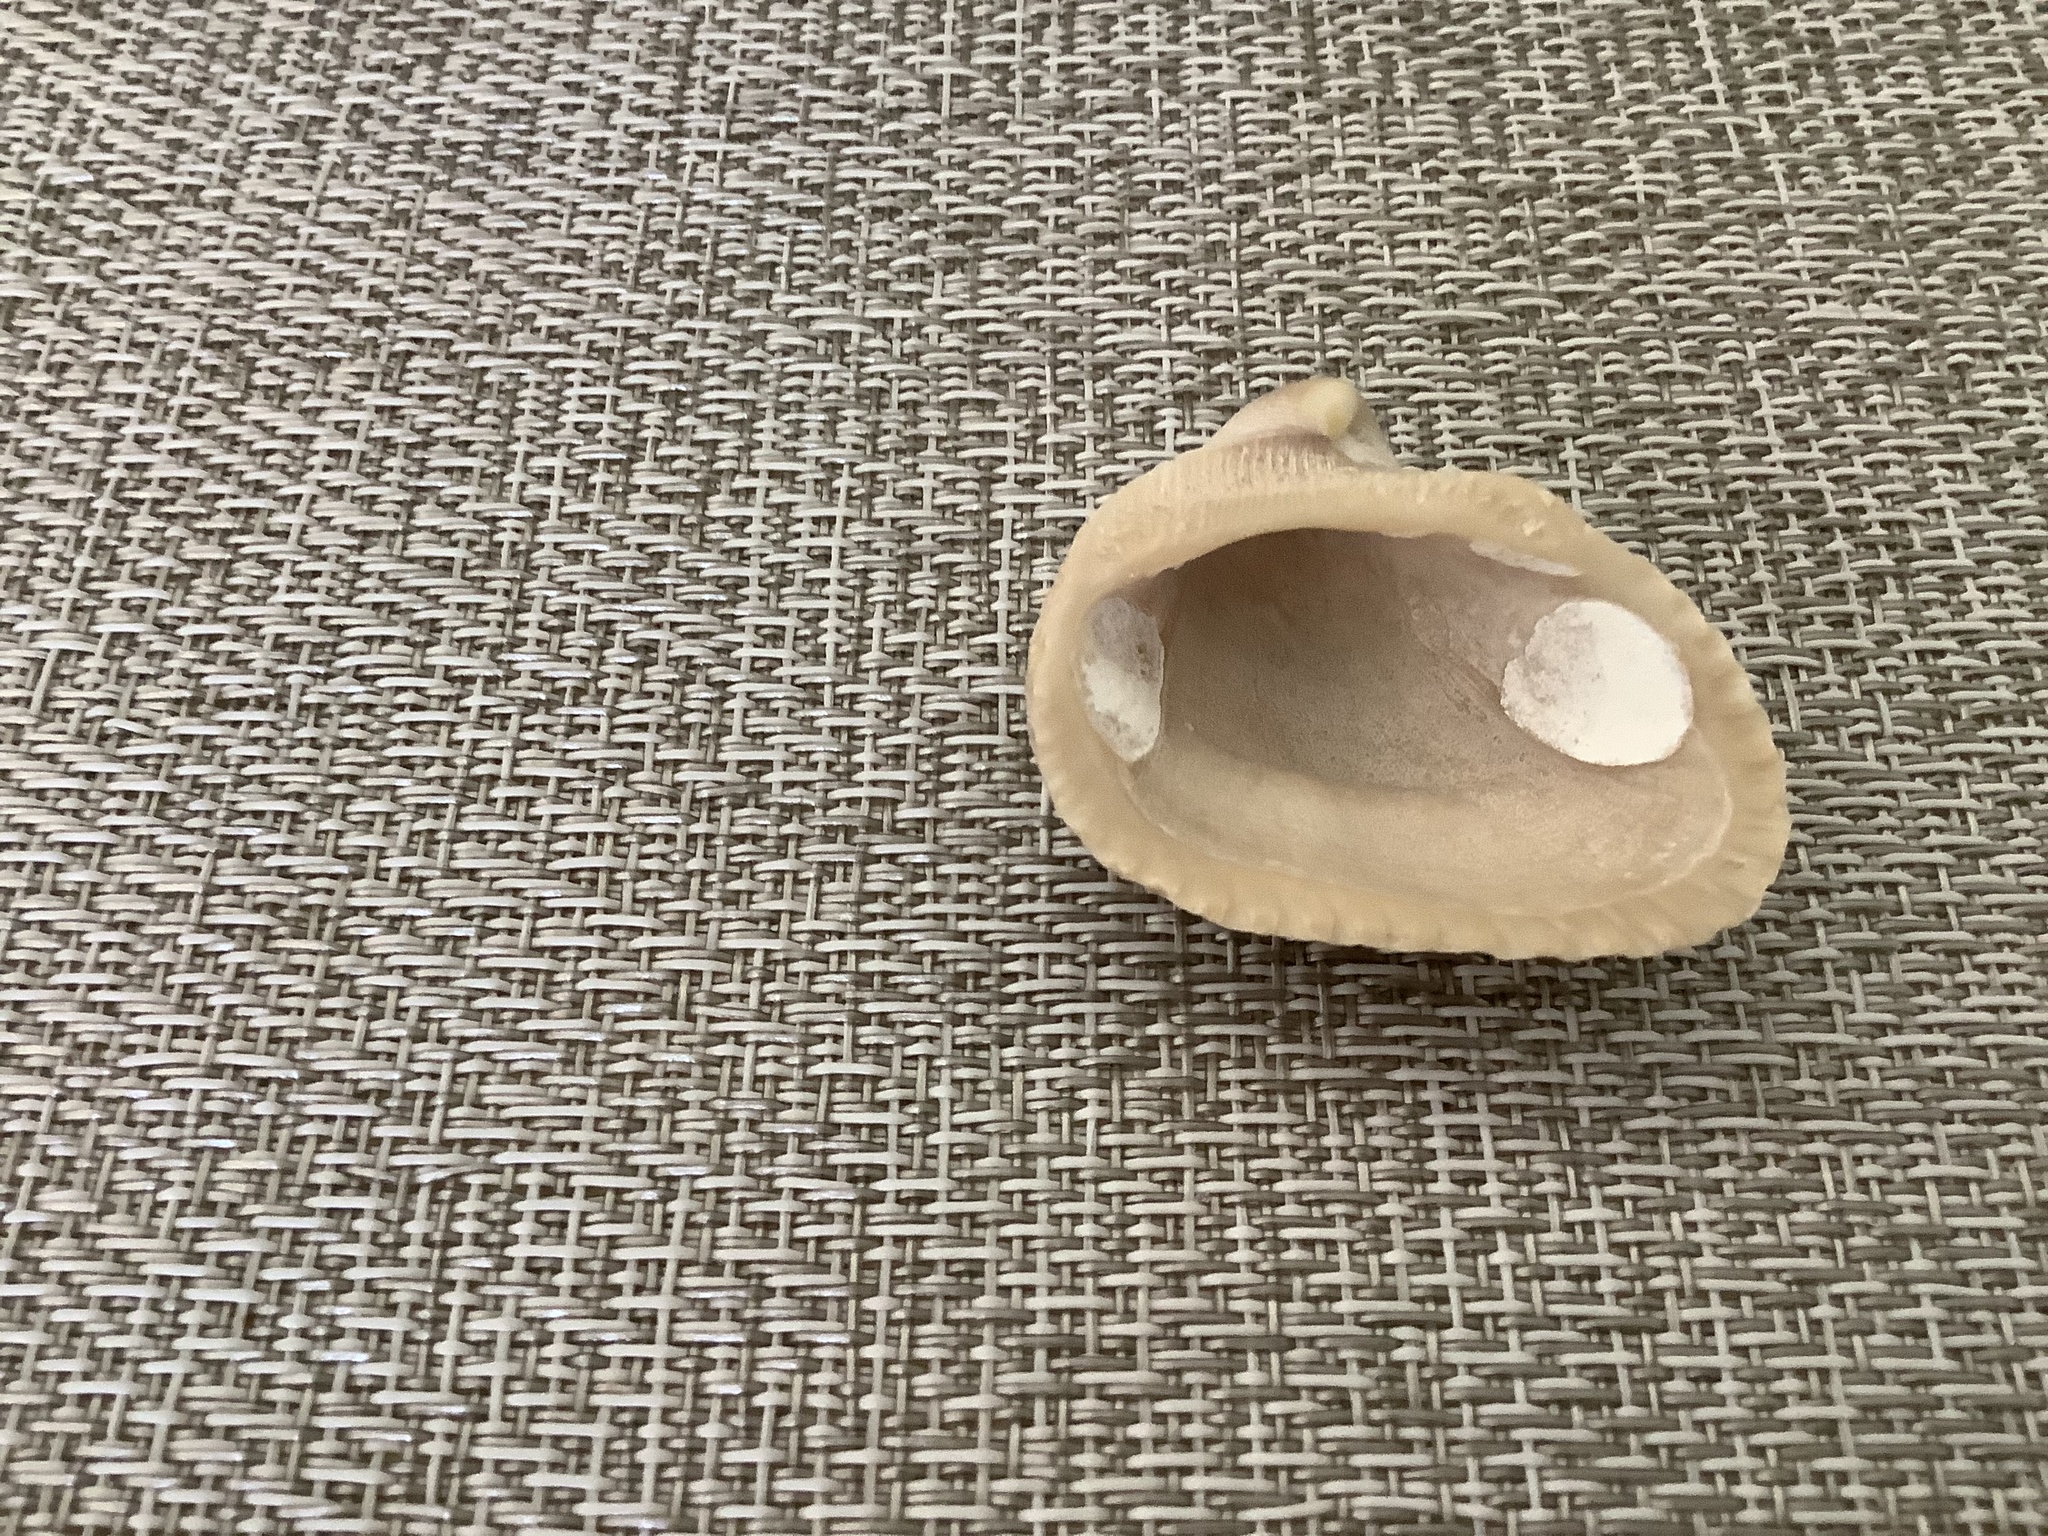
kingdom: Animalia
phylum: Mollusca
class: Bivalvia
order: Arcida
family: Noetiidae
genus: Noetia
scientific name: Noetia ponderosa
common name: Ponderous ark
